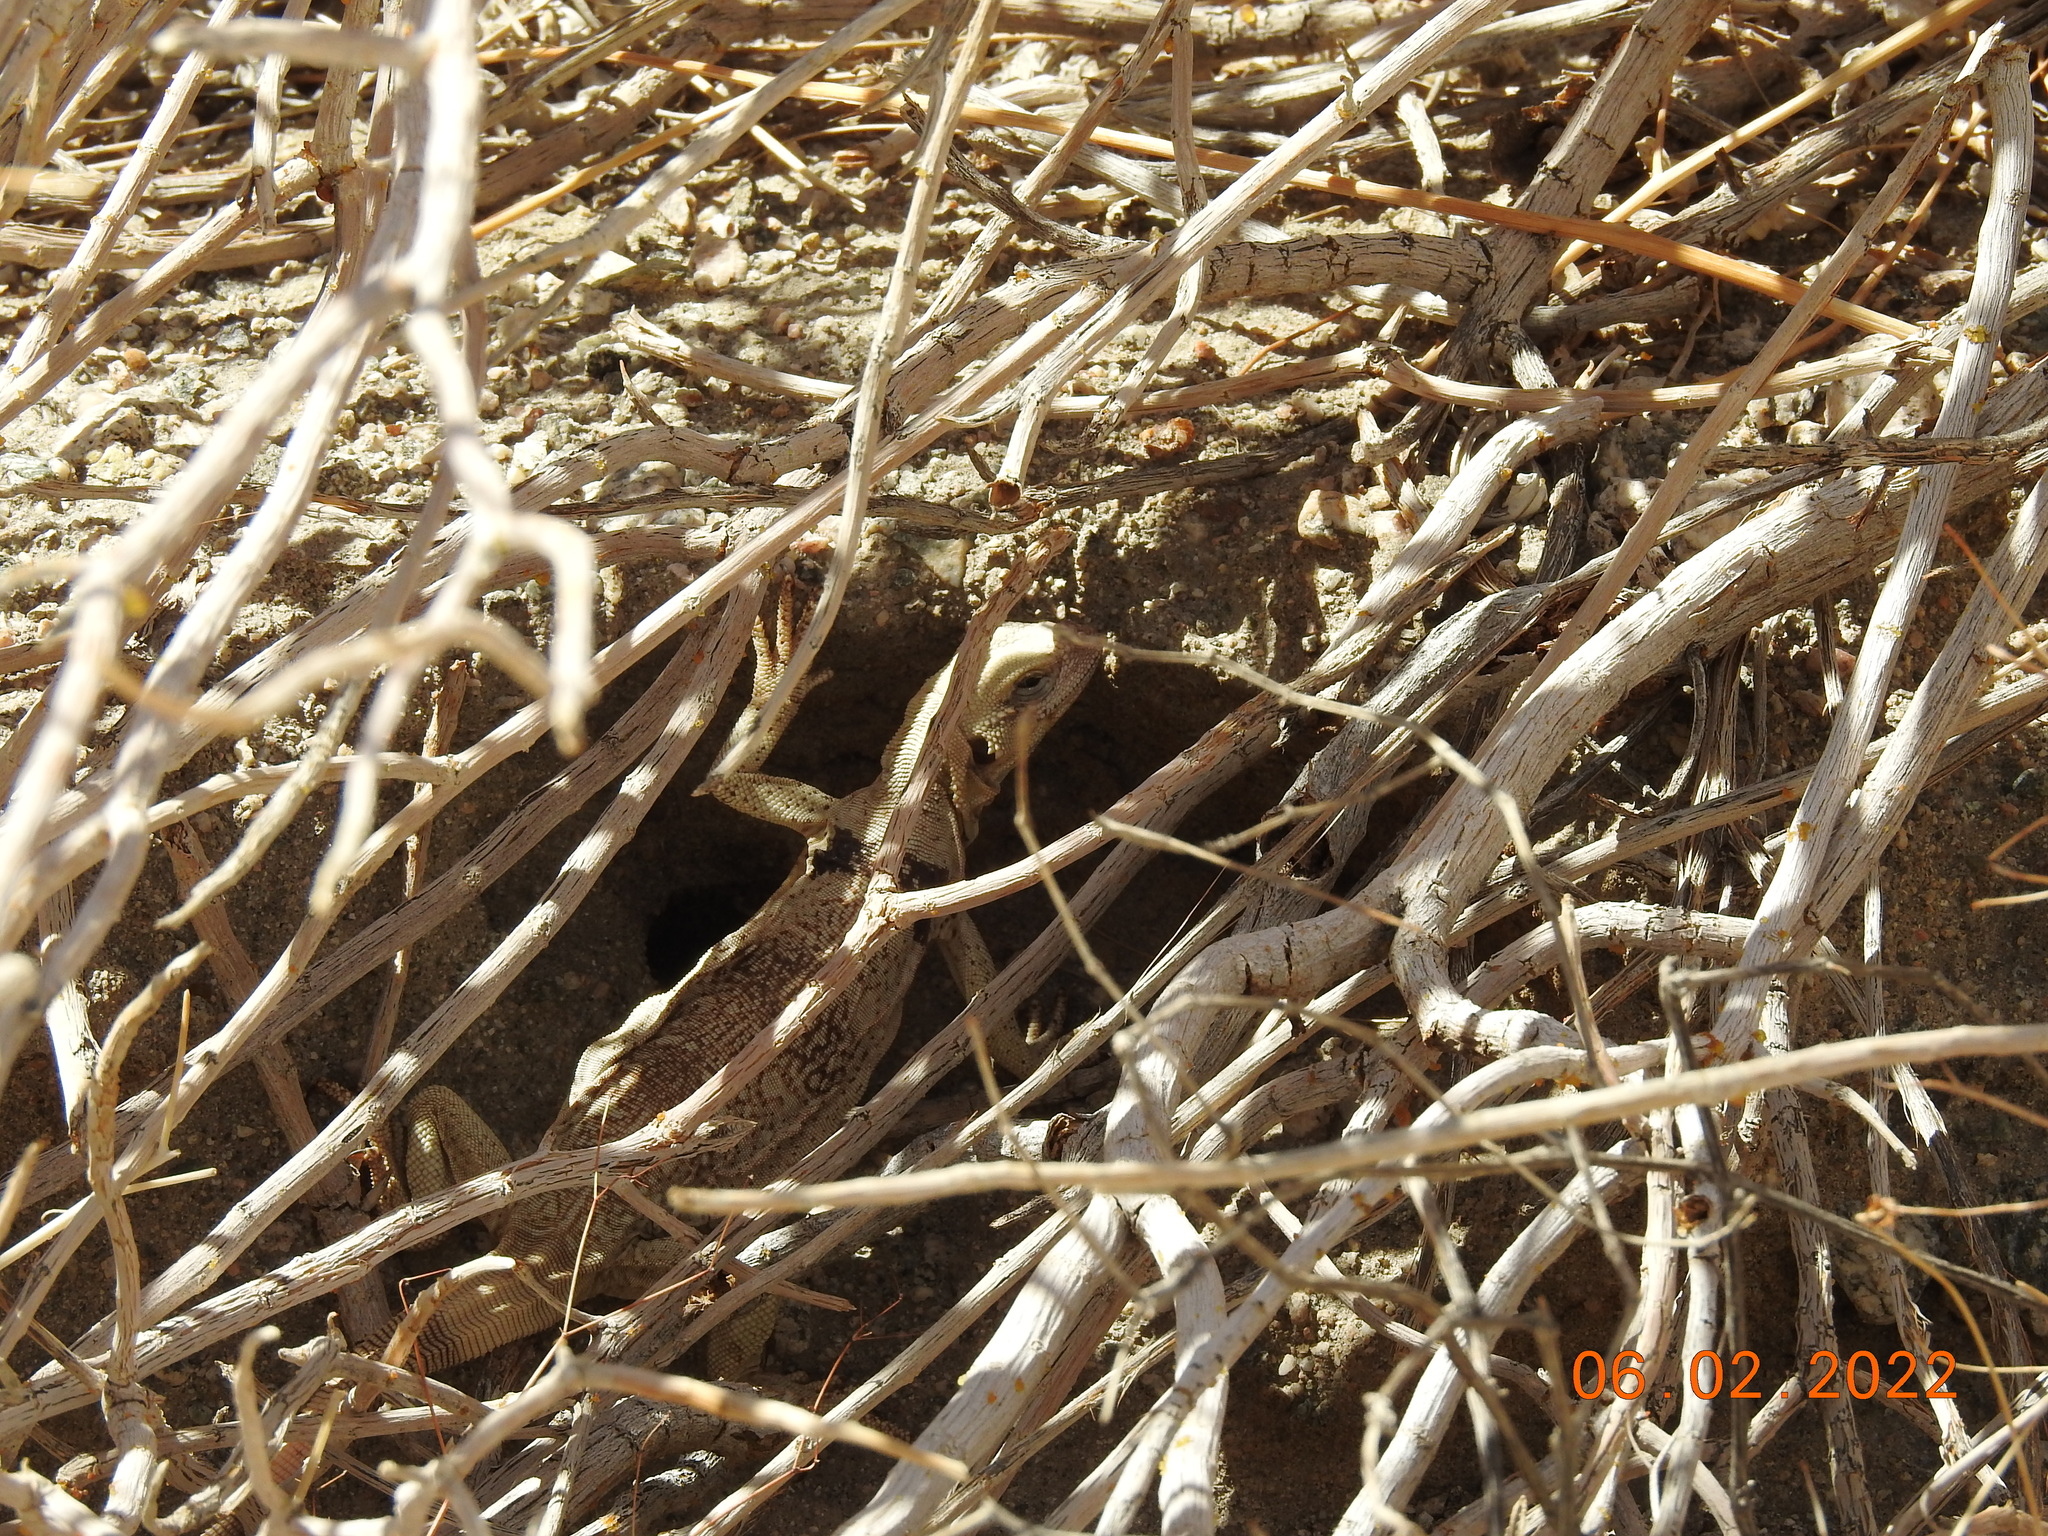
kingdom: Animalia
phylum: Chordata
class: Squamata
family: Iguanidae
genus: Sauromalus
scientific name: Sauromalus ater
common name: Northern chuckwalla
